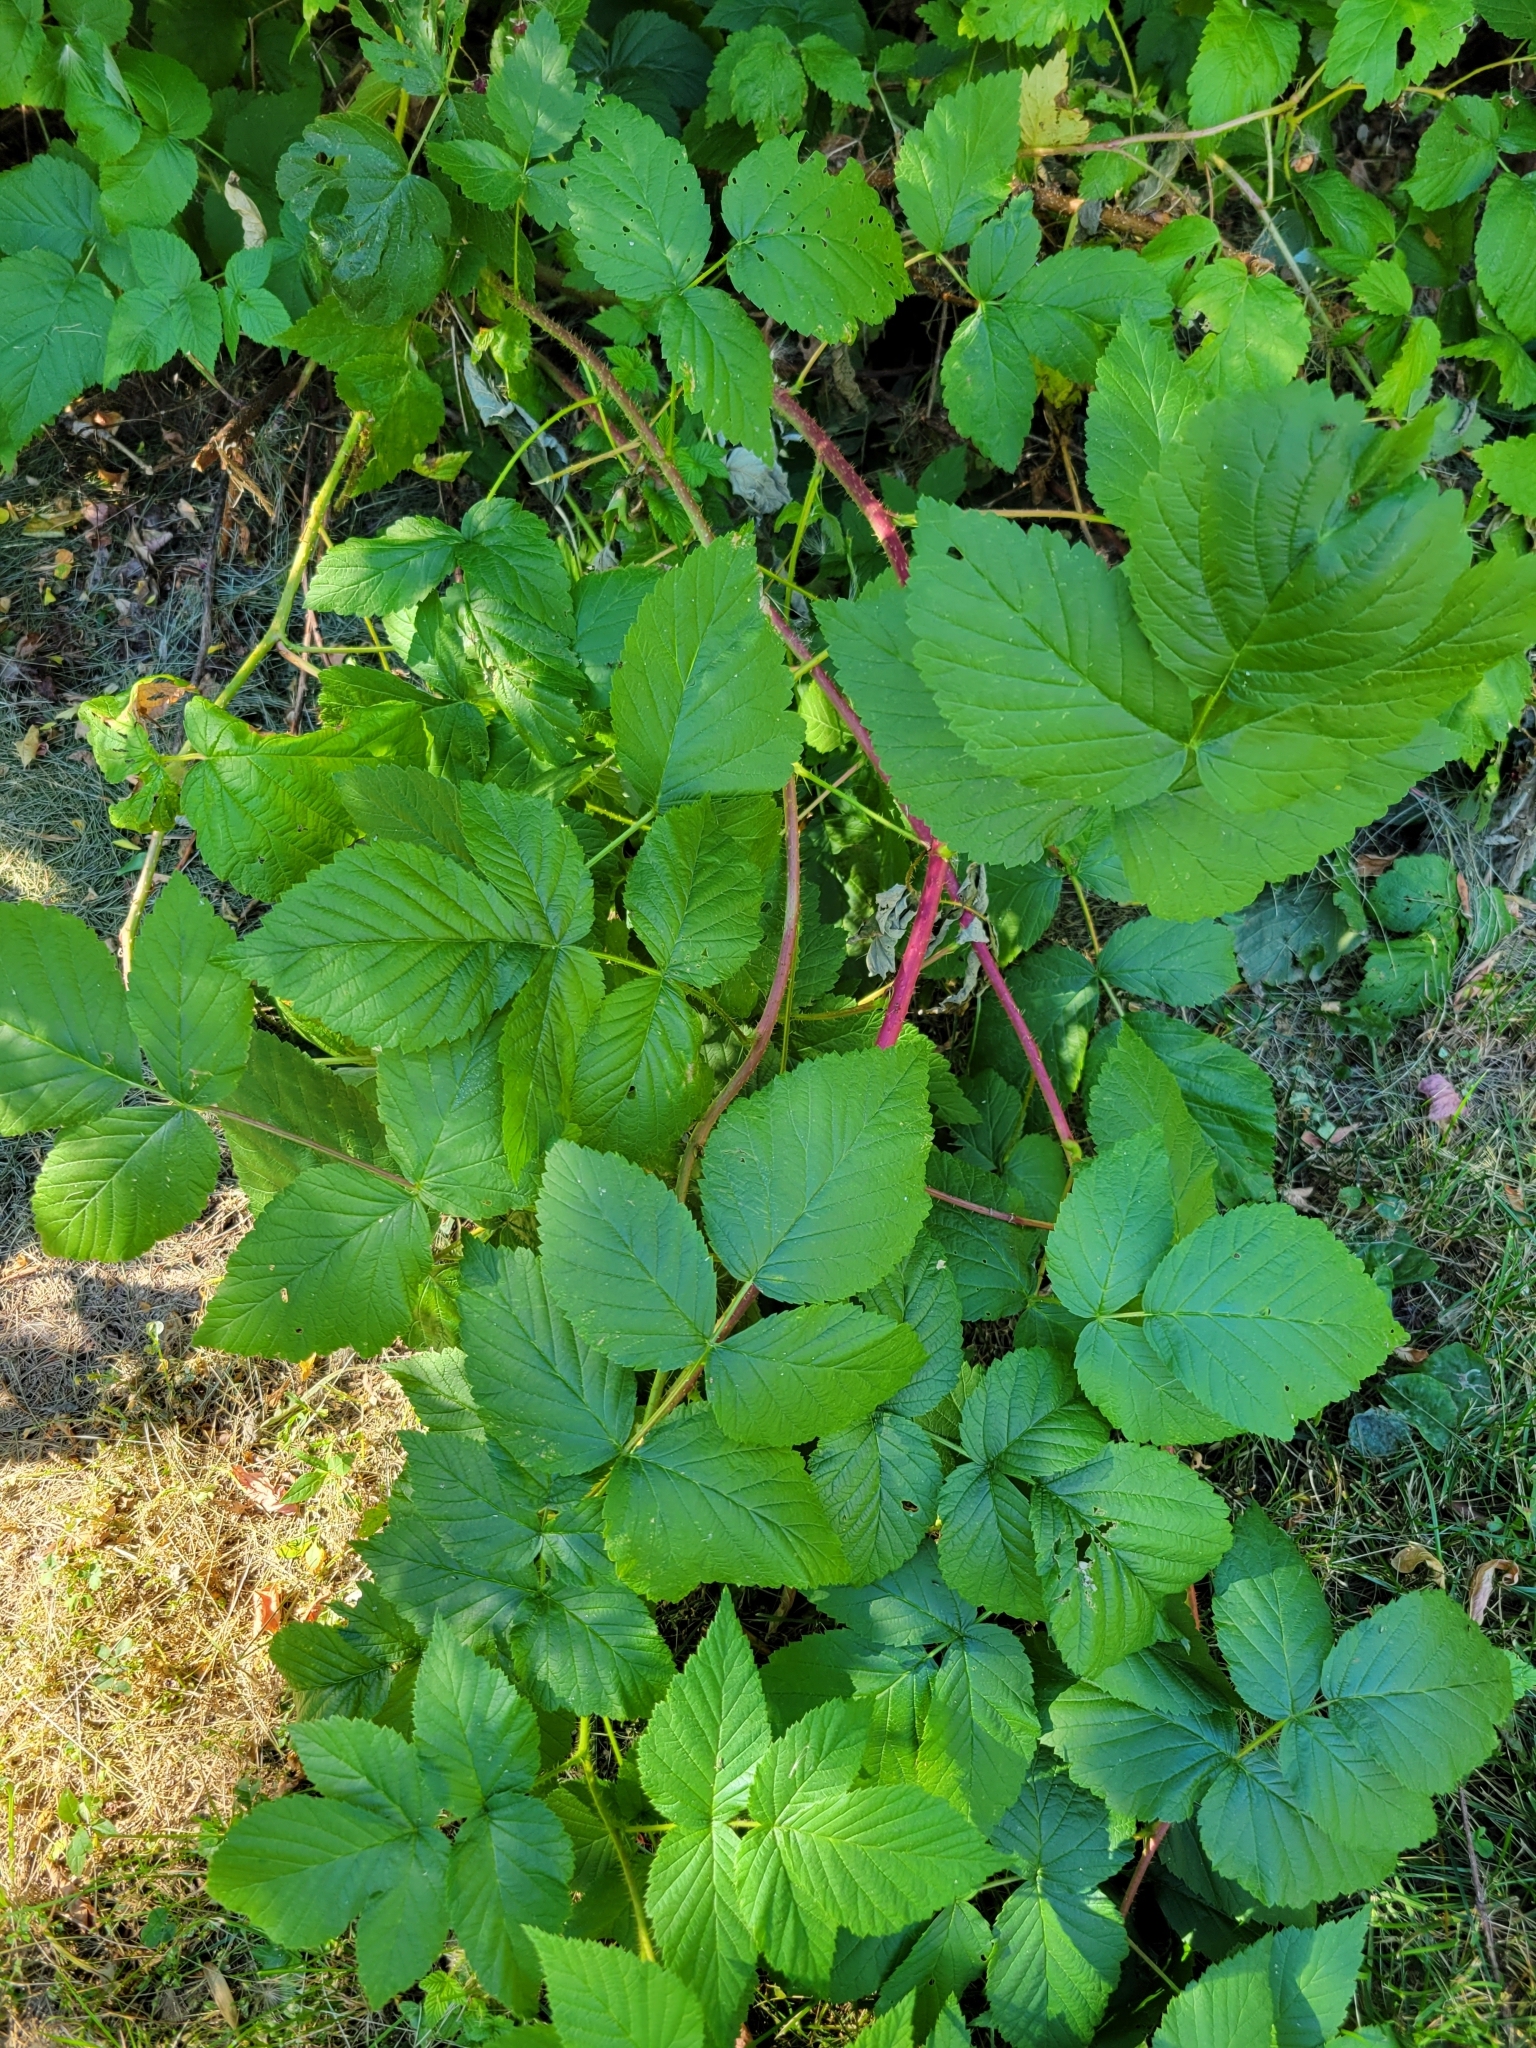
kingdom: Plantae
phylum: Tracheophyta
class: Magnoliopsida
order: Rosales
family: Rosaceae
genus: Rubus
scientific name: Rubus idaeus
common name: Raspberry
